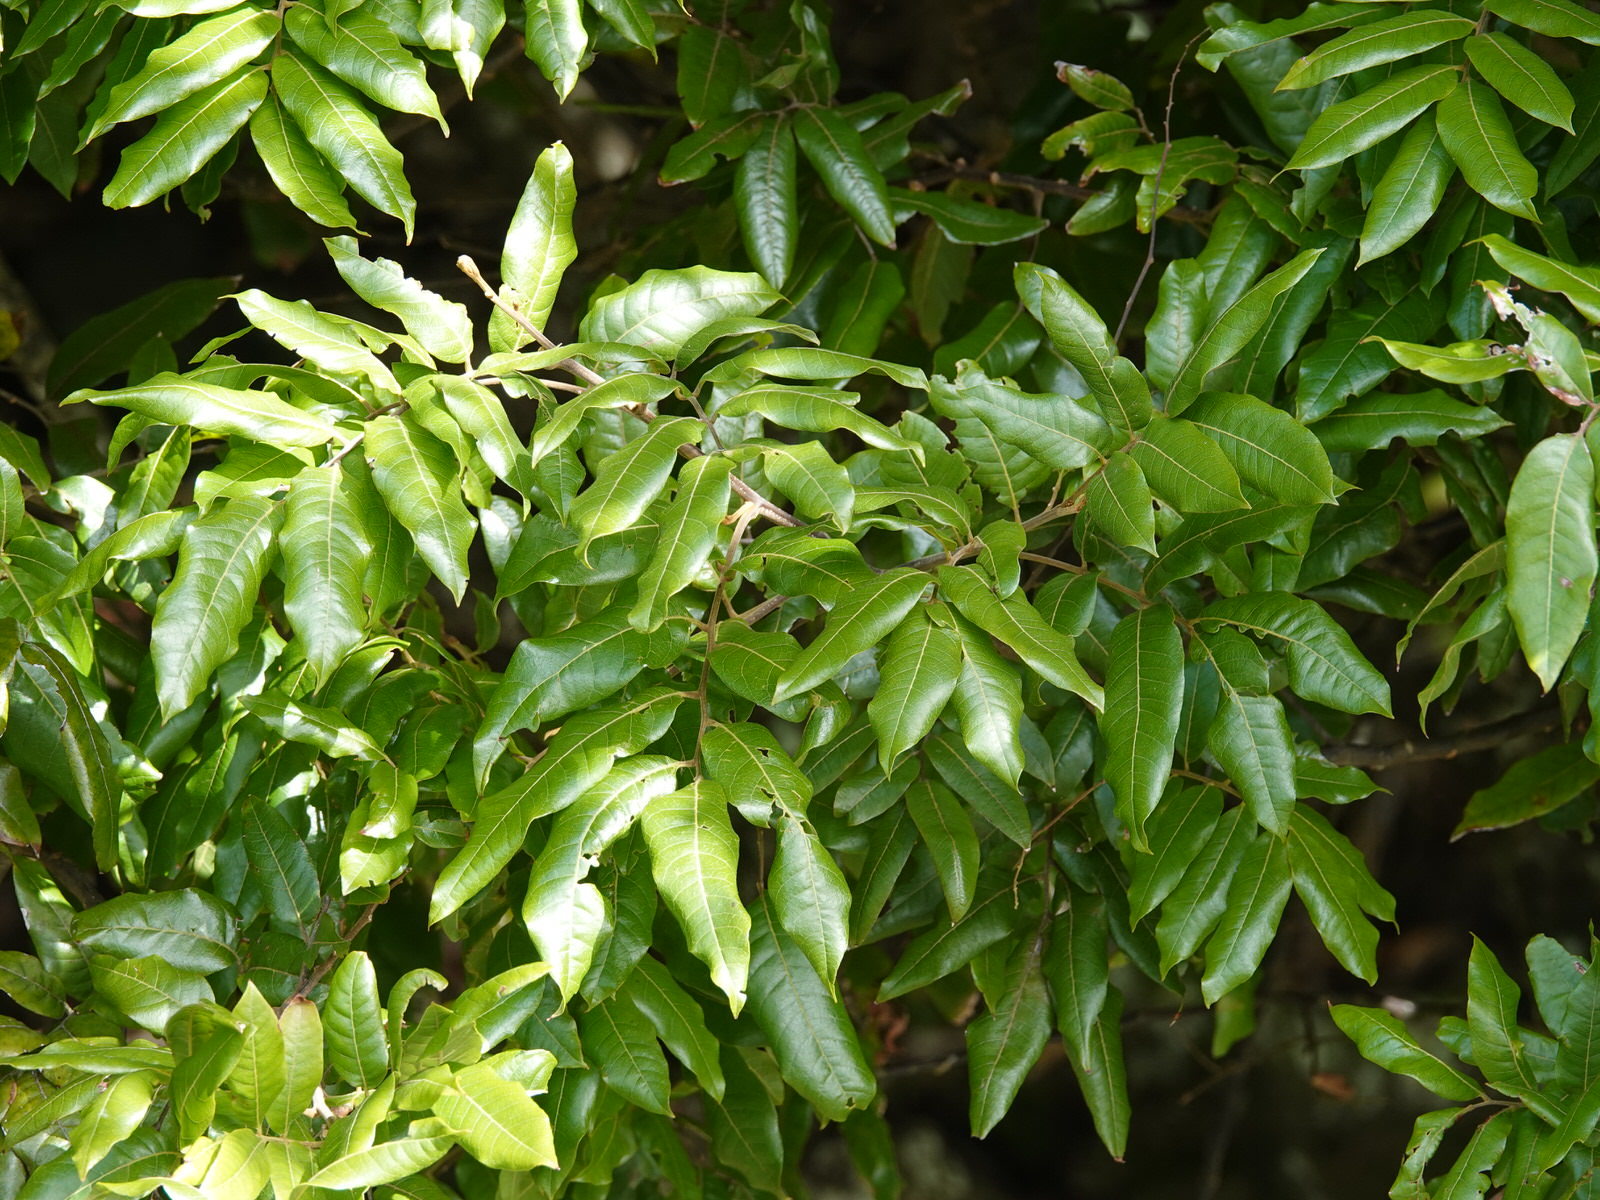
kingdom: Plantae
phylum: Tracheophyta
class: Magnoliopsida
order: Sapindales
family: Sapindaceae
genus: Alectryon
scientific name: Alectryon excelsus
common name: Three kings titoki
